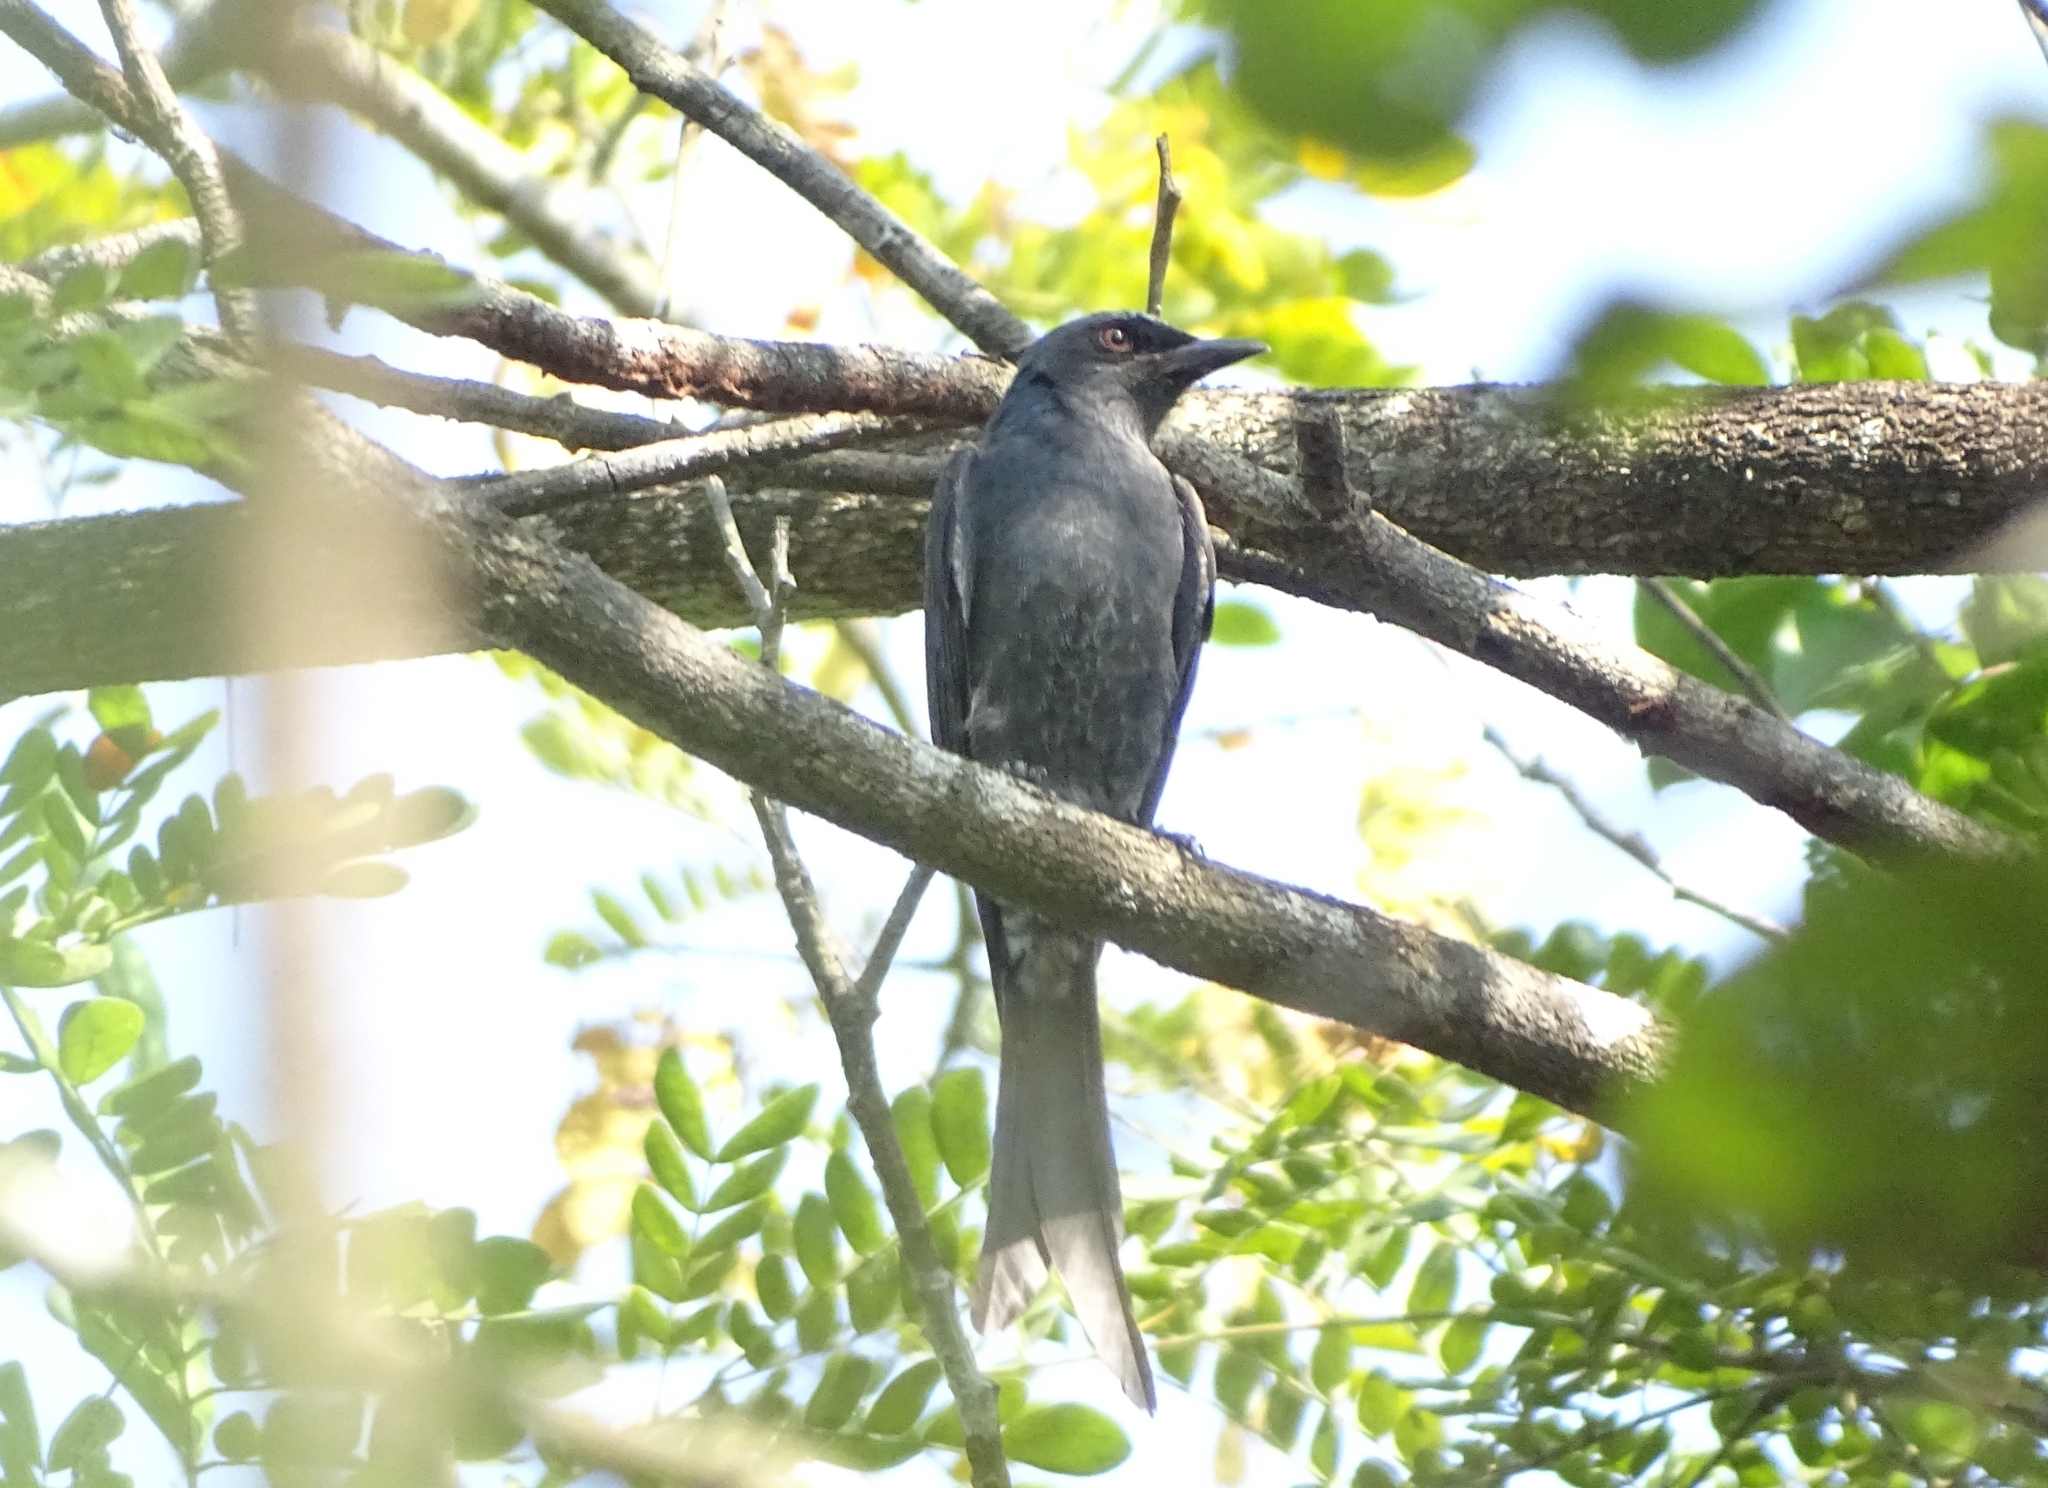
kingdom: Animalia
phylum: Chordata
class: Aves
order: Passeriformes
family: Dicruridae
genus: Dicrurus
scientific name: Dicrurus leucophaeus
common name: Ashy drongo
